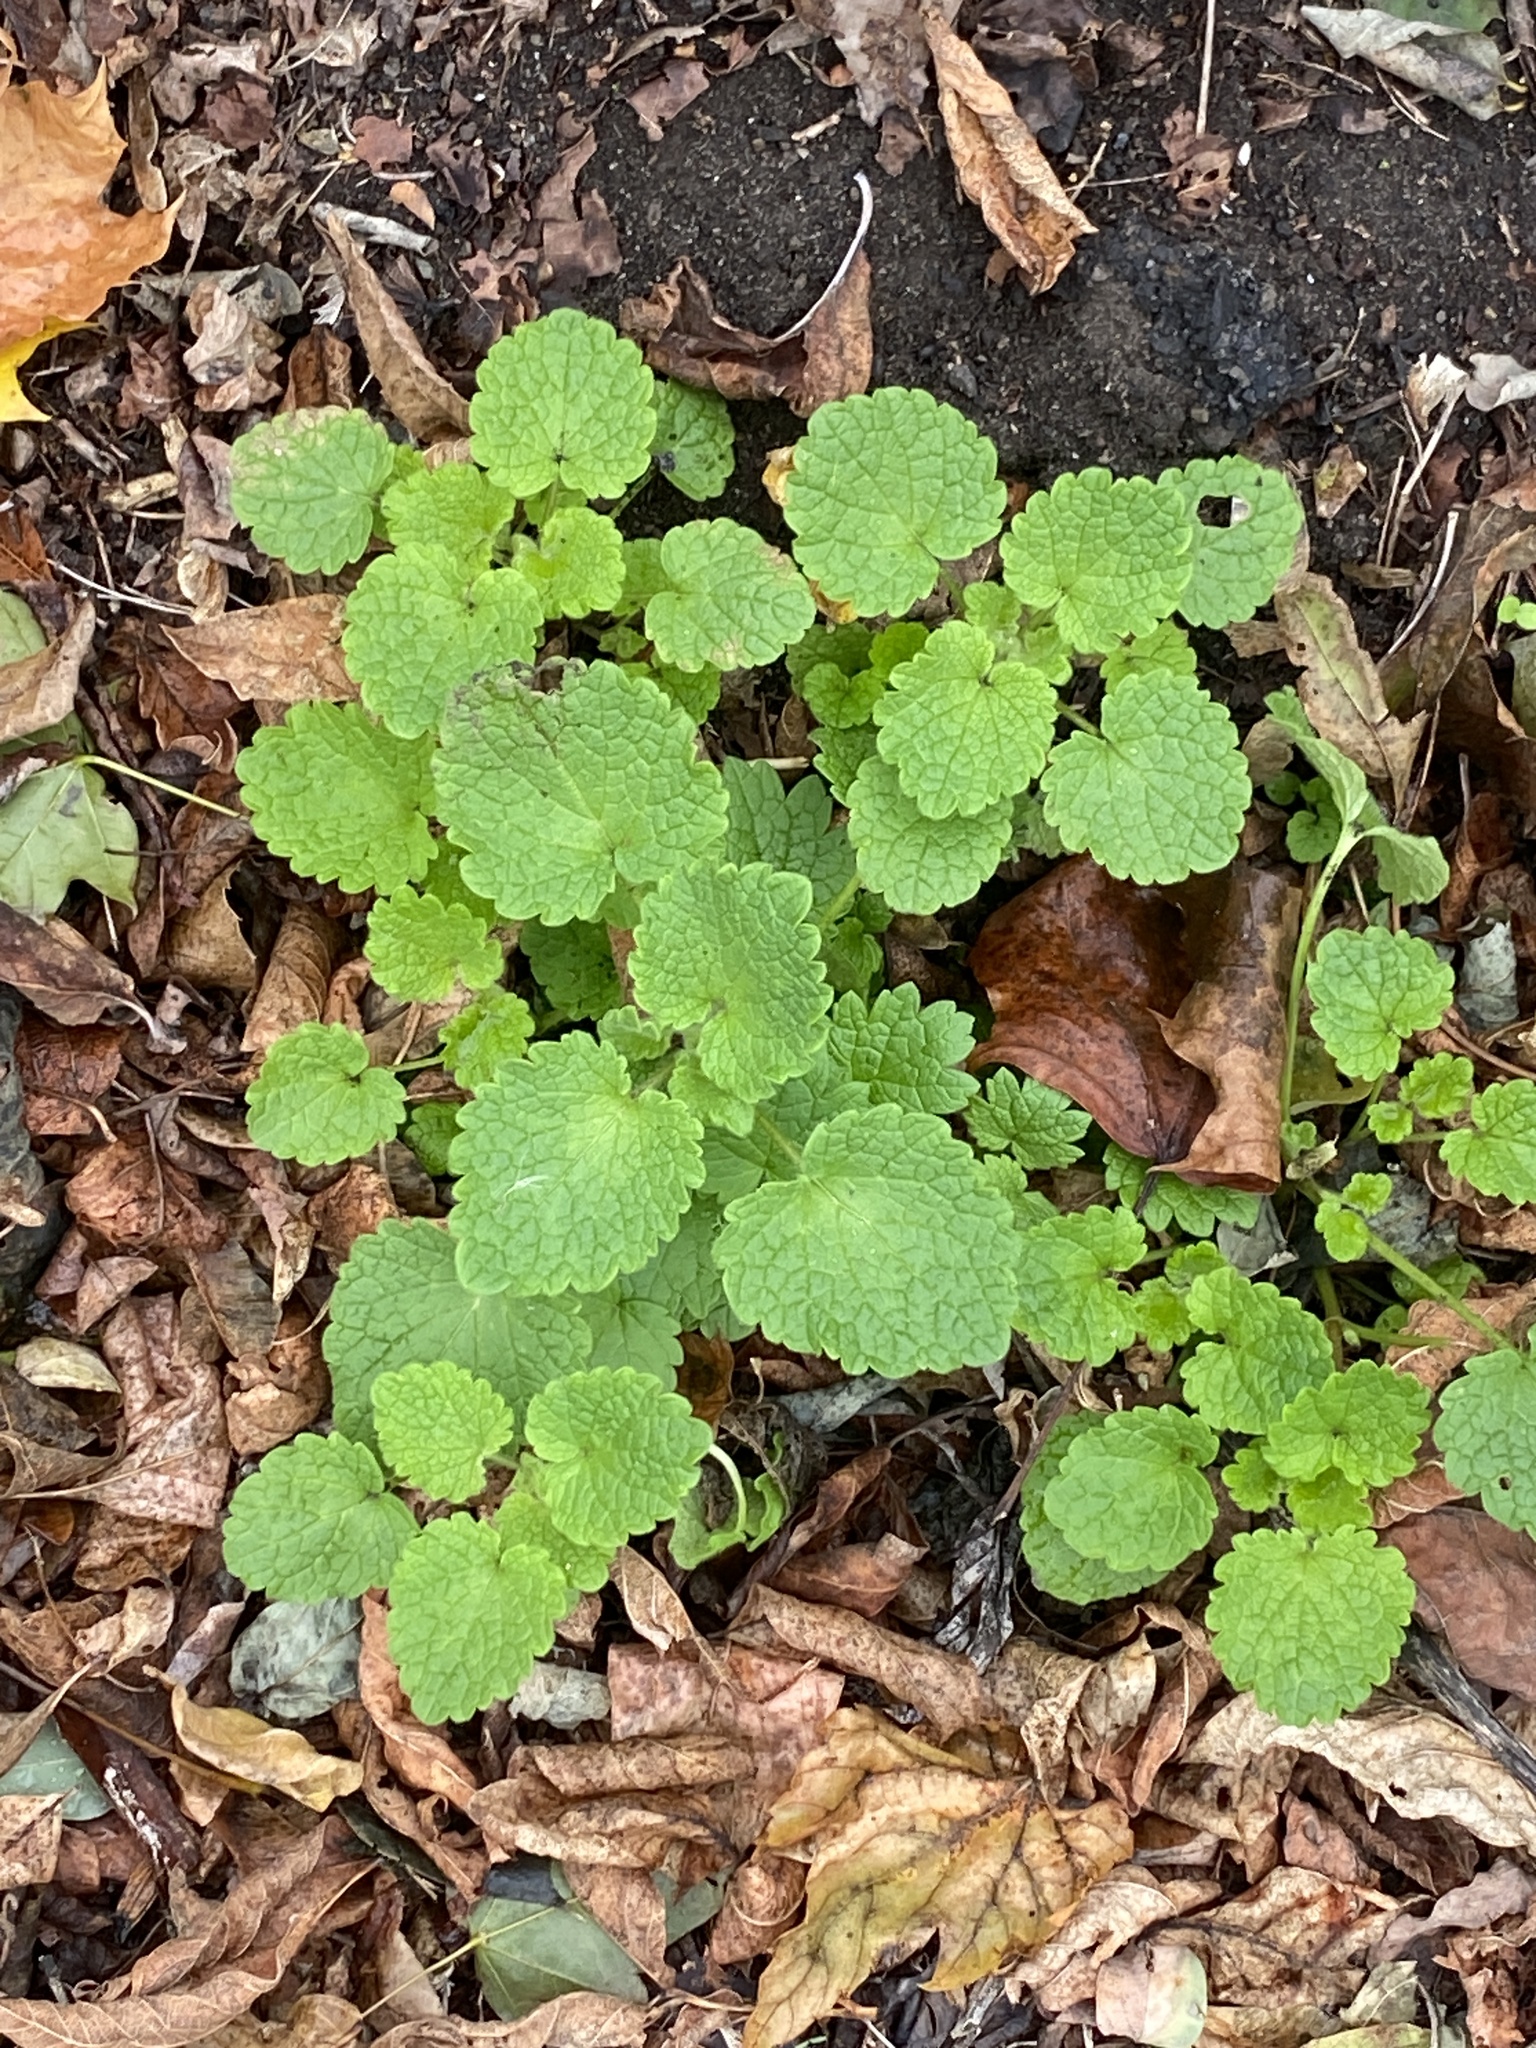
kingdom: Plantae
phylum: Tracheophyta
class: Magnoliopsida
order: Lamiales
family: Lamiaceae
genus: Lamium
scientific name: Lamium purpureum
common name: Red dead-nettle
